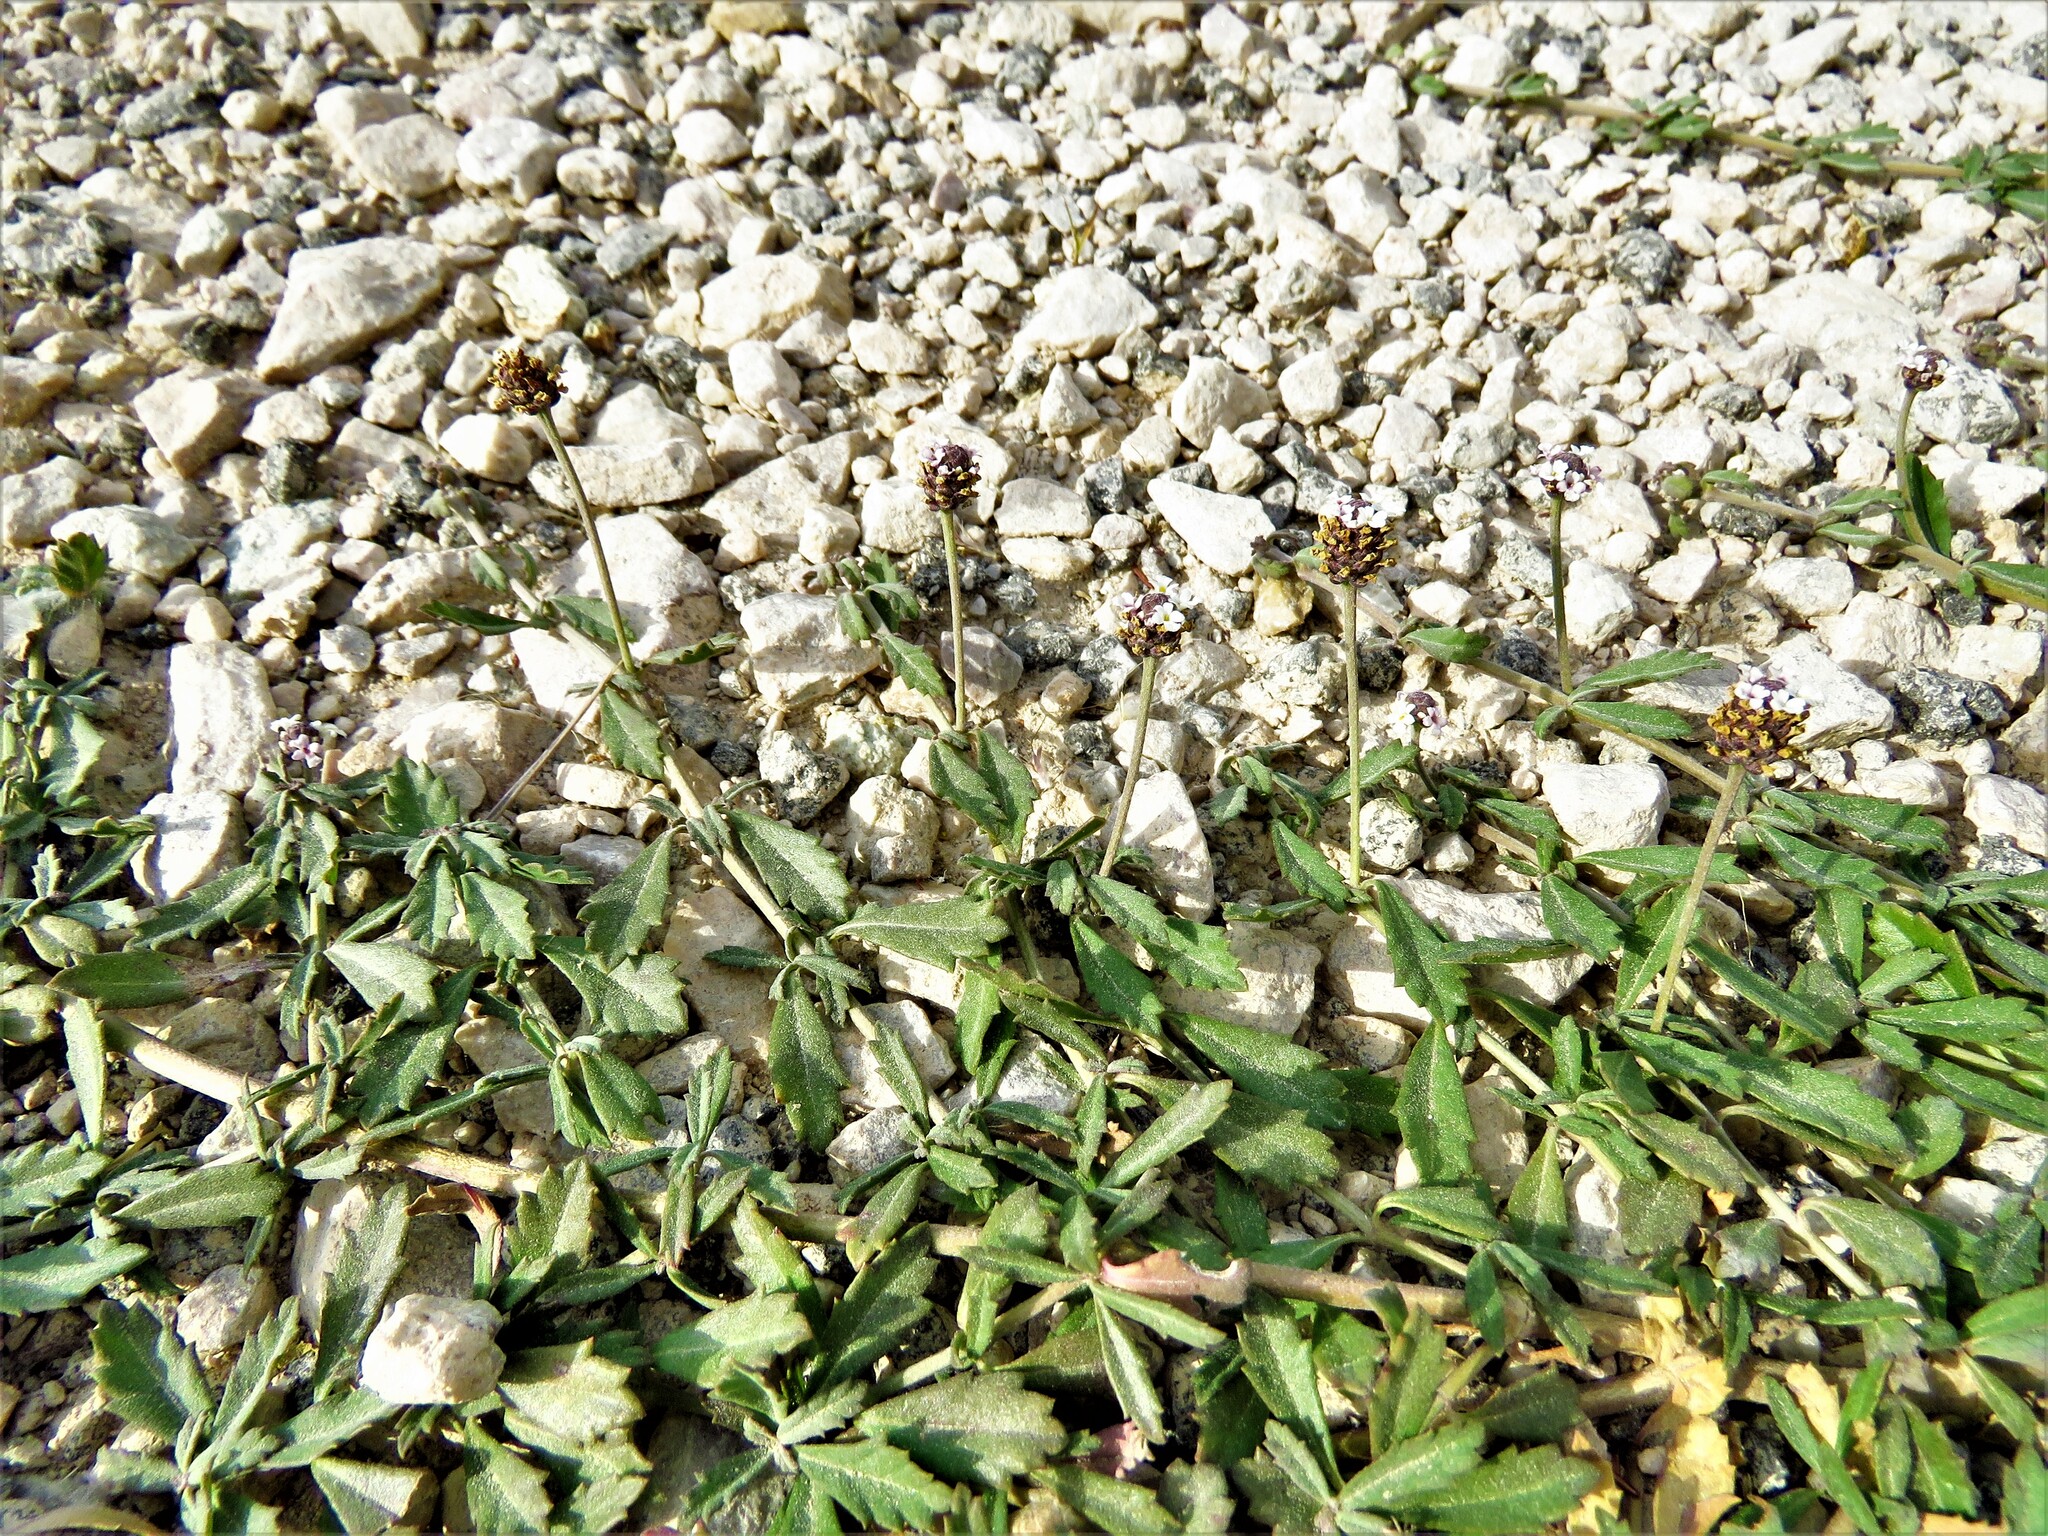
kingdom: Plantae
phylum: Tracheophyta
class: Magnoliopsida
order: Lamiales
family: Verbenaceae
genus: Phyla
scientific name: Phyla nodiflora
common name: Frogfruit
